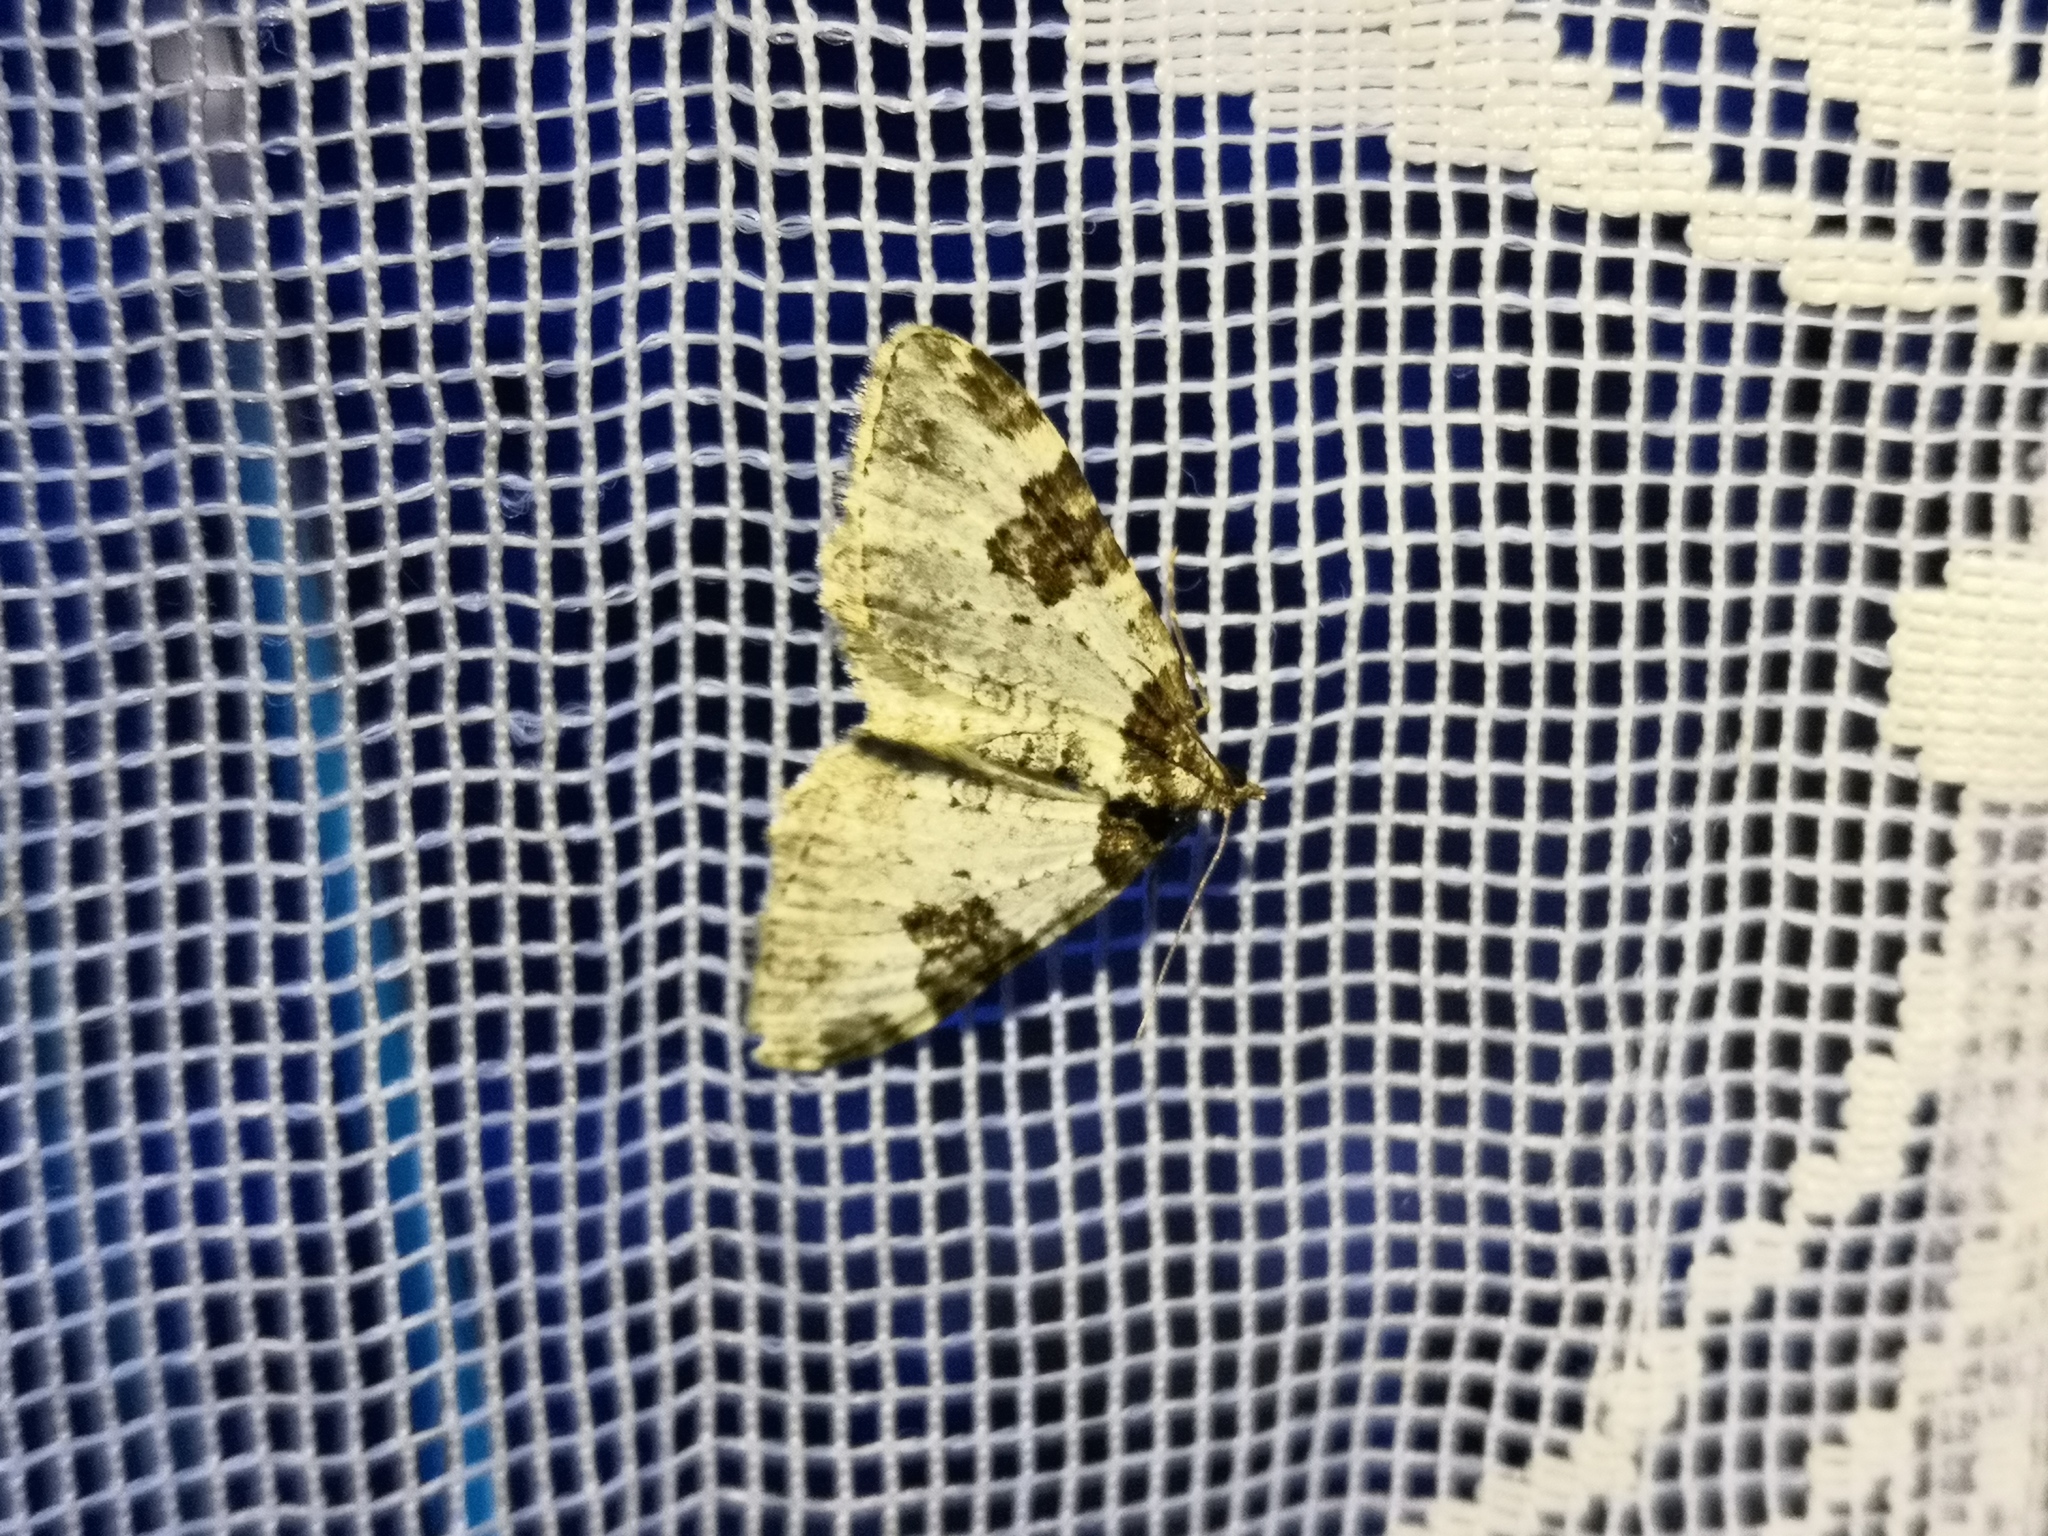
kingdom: Animalia
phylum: Arthropoda
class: Insecta
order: Lepidoptera
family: Geometridae
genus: Xanthorhoe
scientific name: Xanthorhoe fluctuata
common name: Garden carpet
